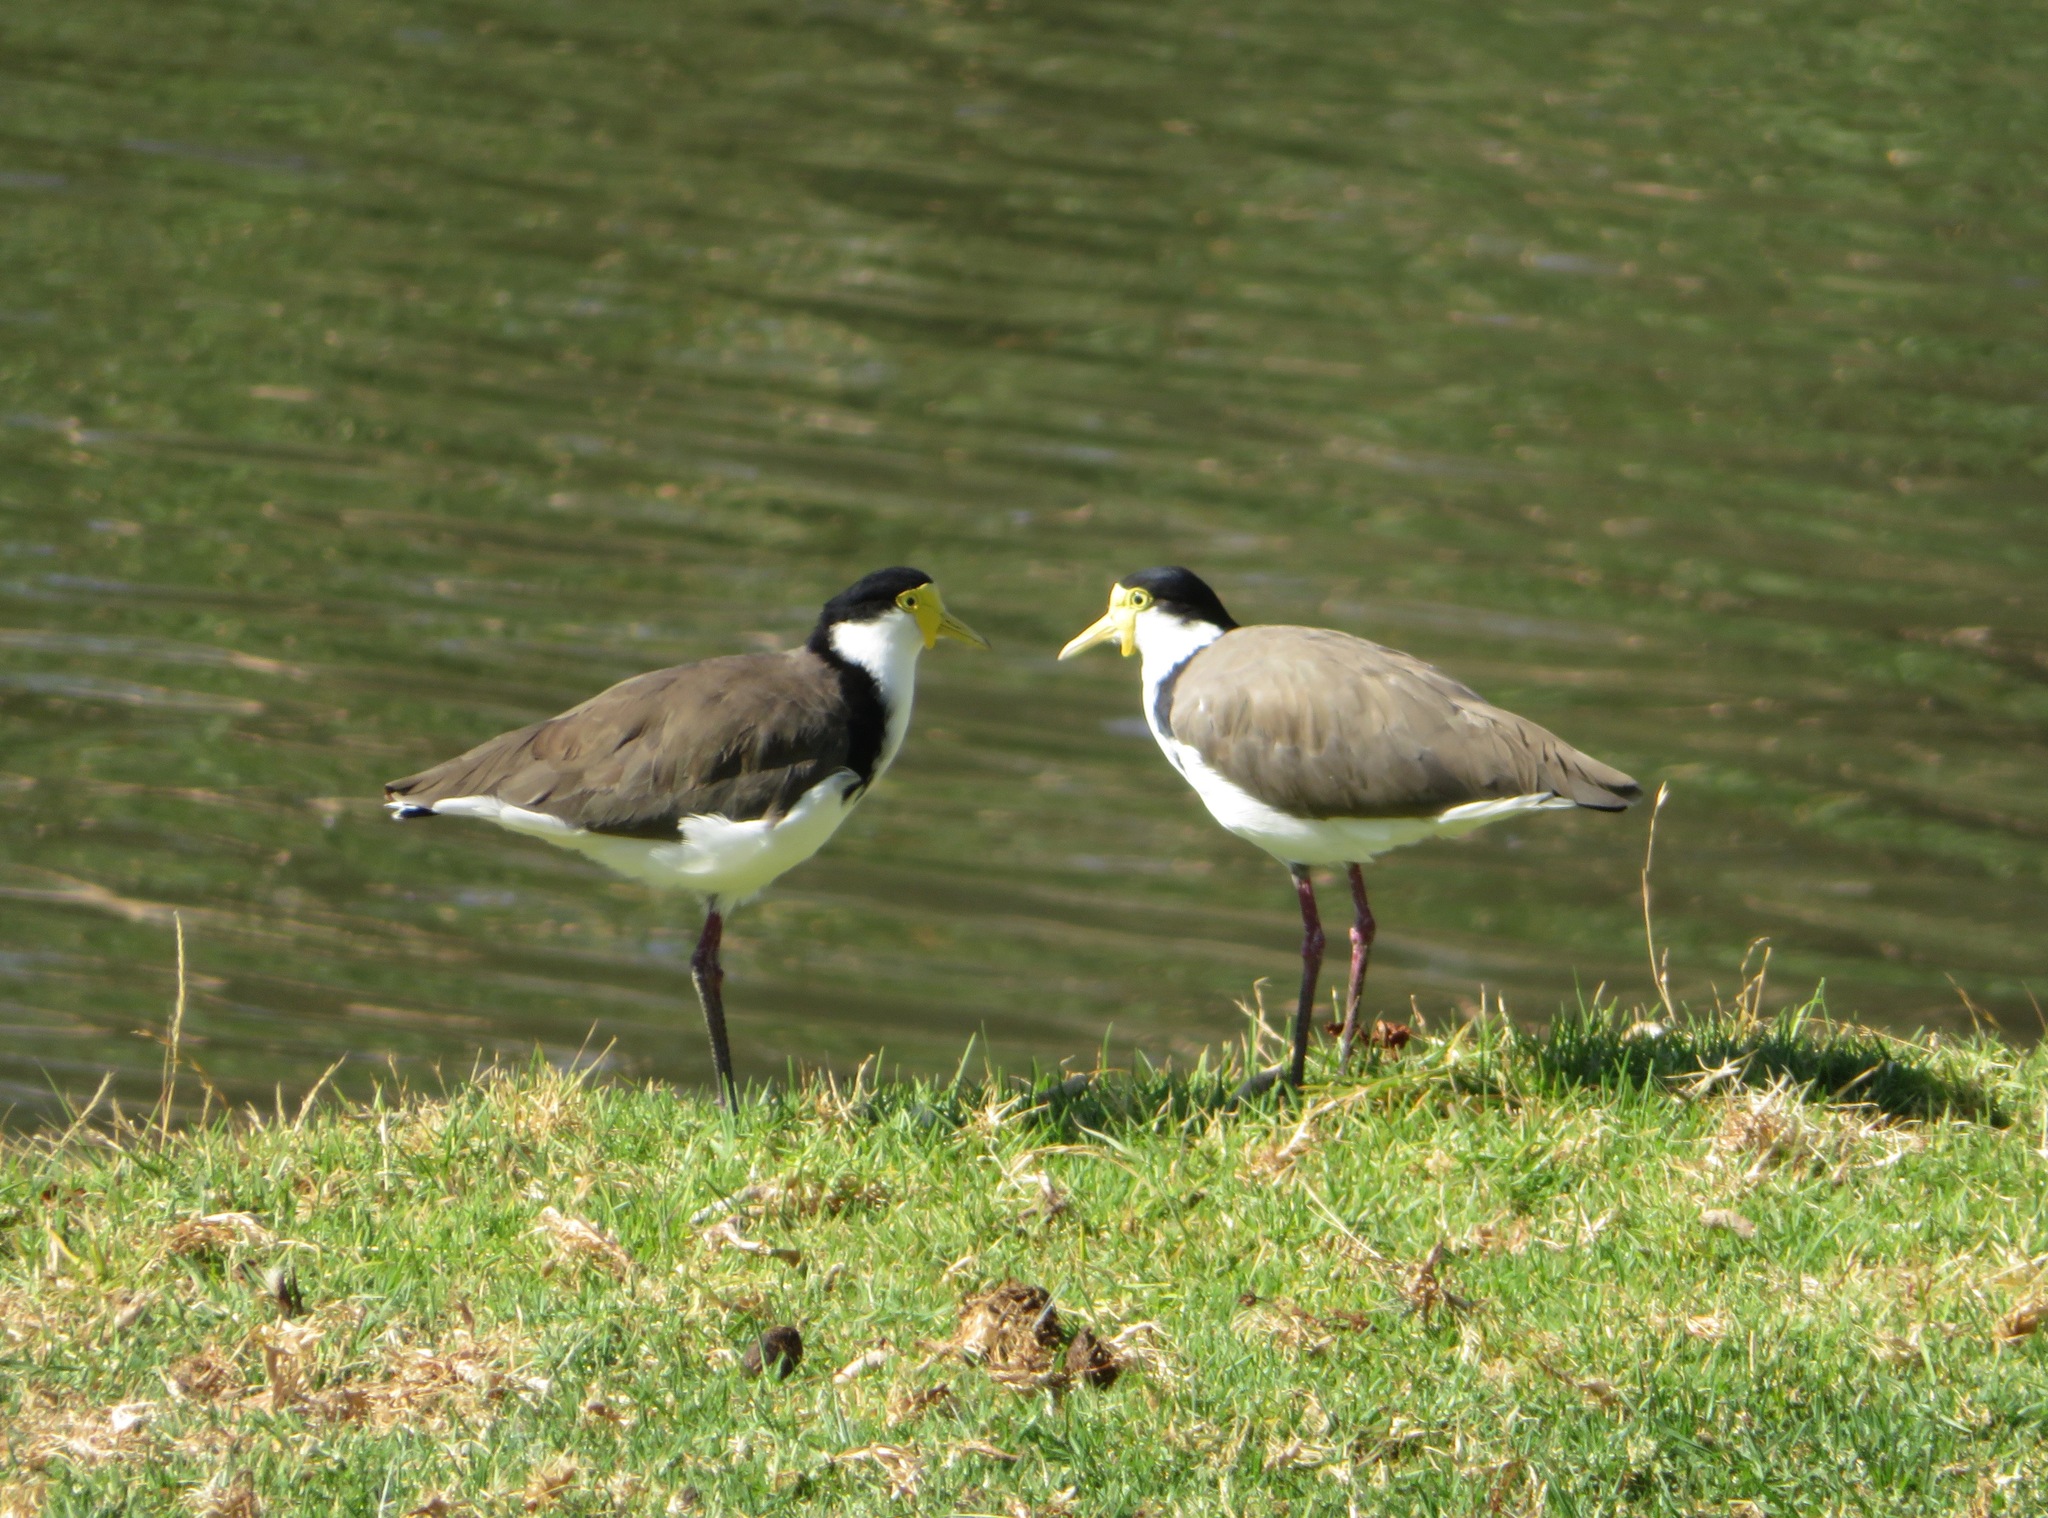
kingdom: Animalia
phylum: Chordata
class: Aves
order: Charadriiformes
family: Charadriidae
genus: Vanellus
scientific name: Vanellus miles
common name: Masked lapwing
